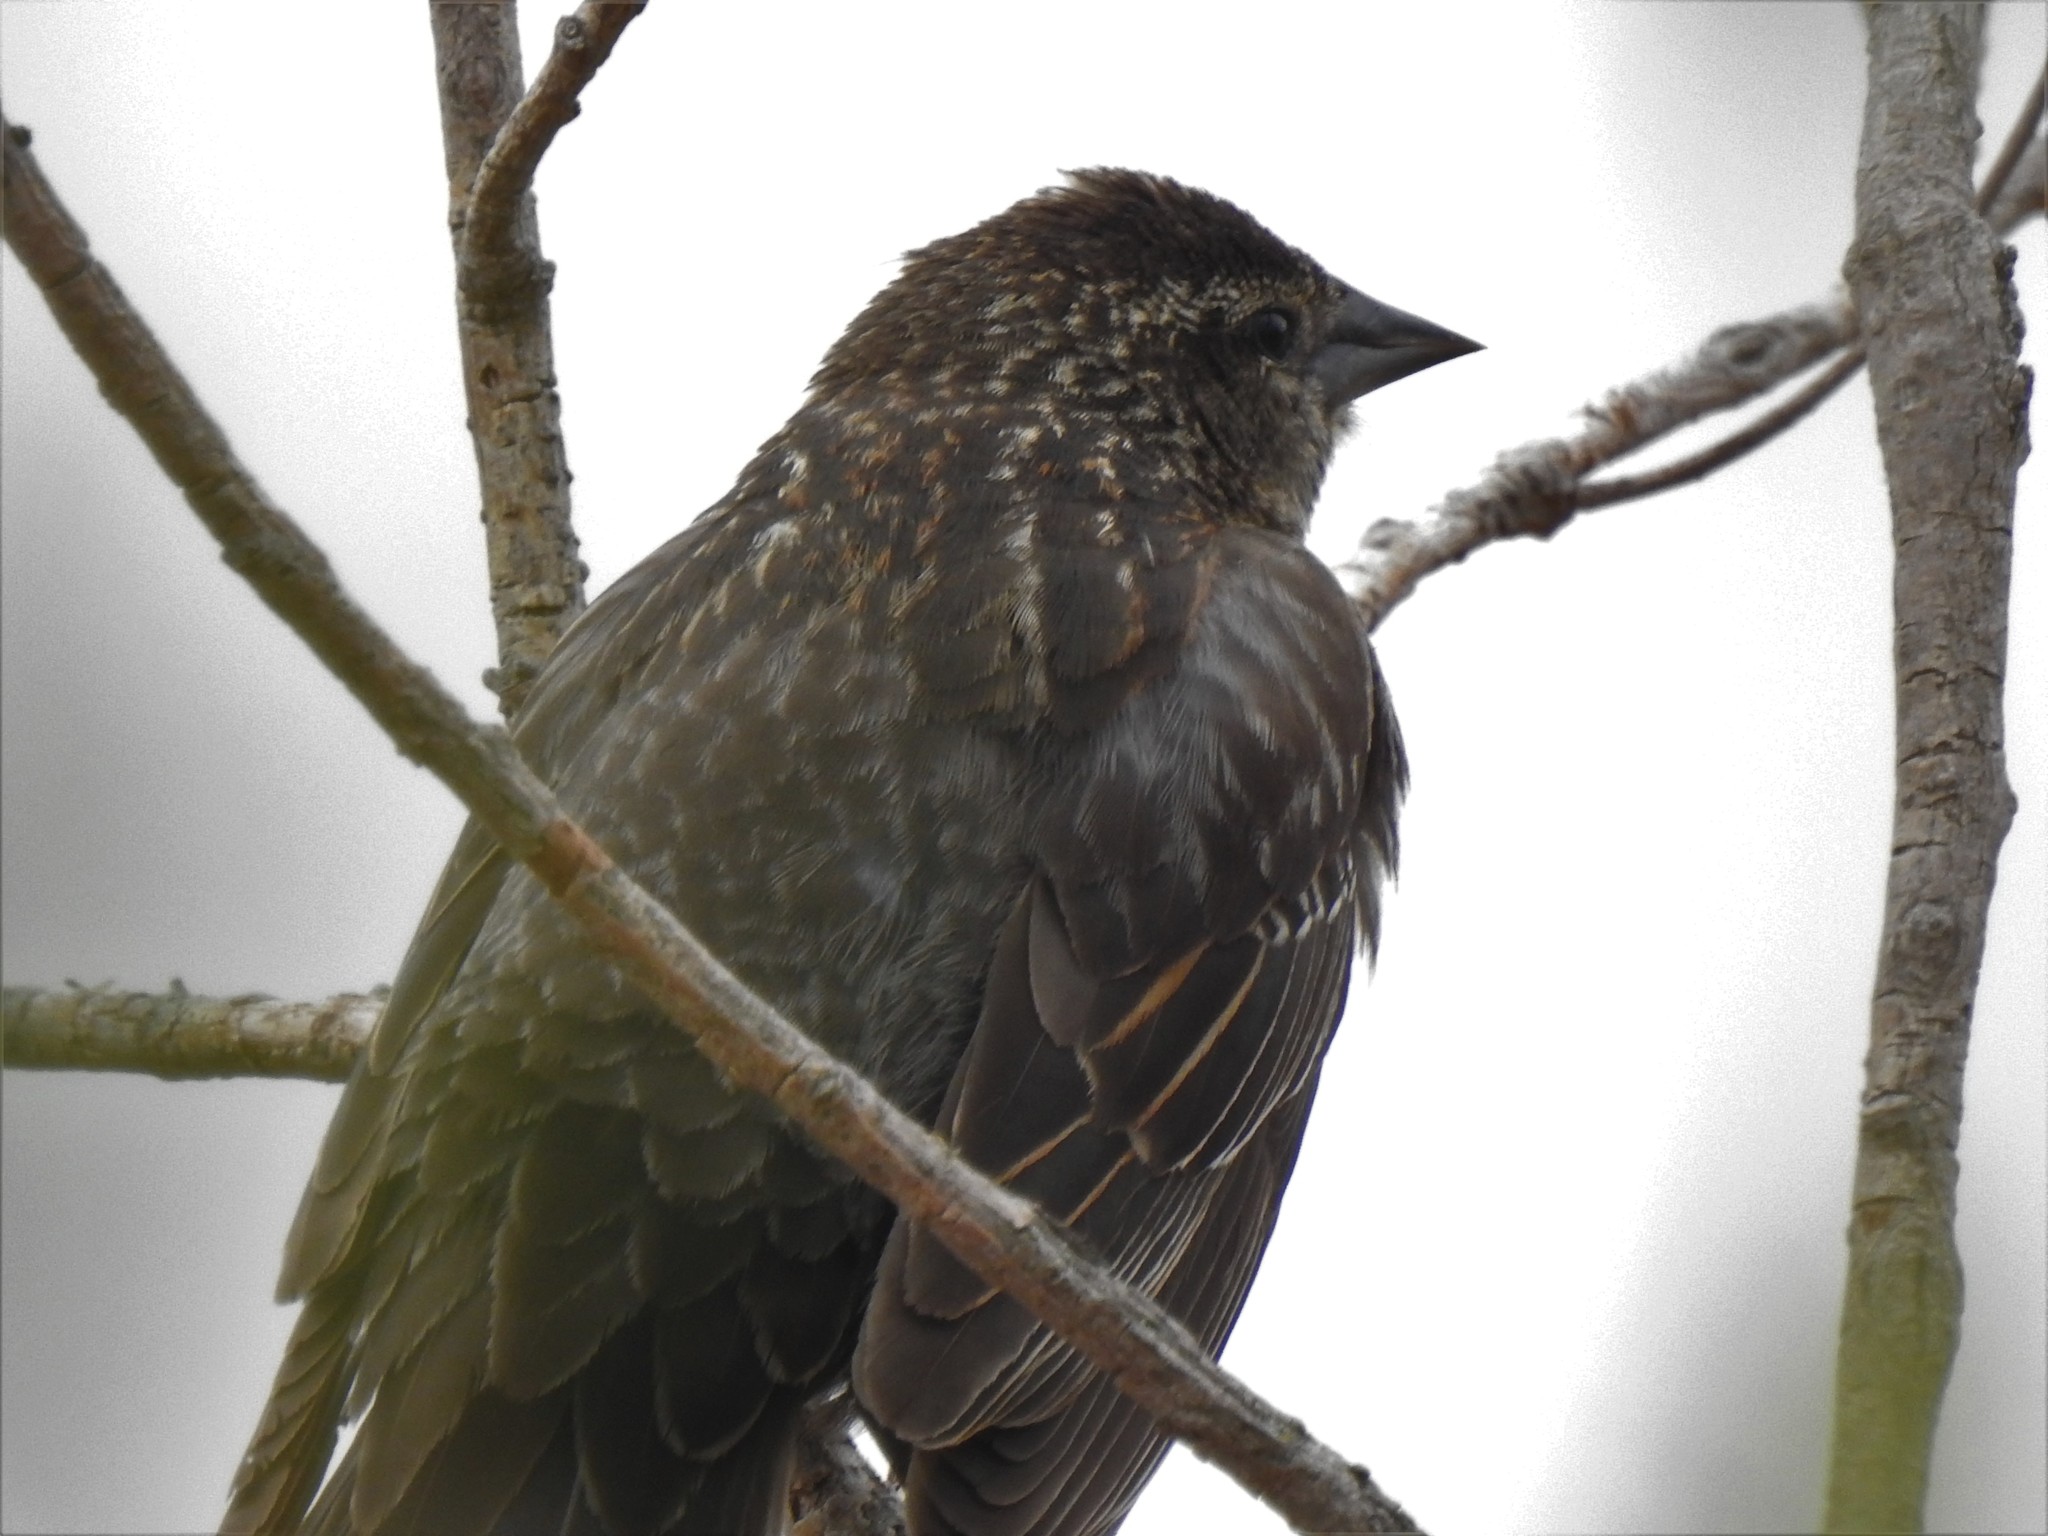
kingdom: Animalia
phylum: Chordata
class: Aves
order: Passeriformes
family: Icteridae
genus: Agelaius
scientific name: Agelaius phoeniceus
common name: Red-winged blackbird
